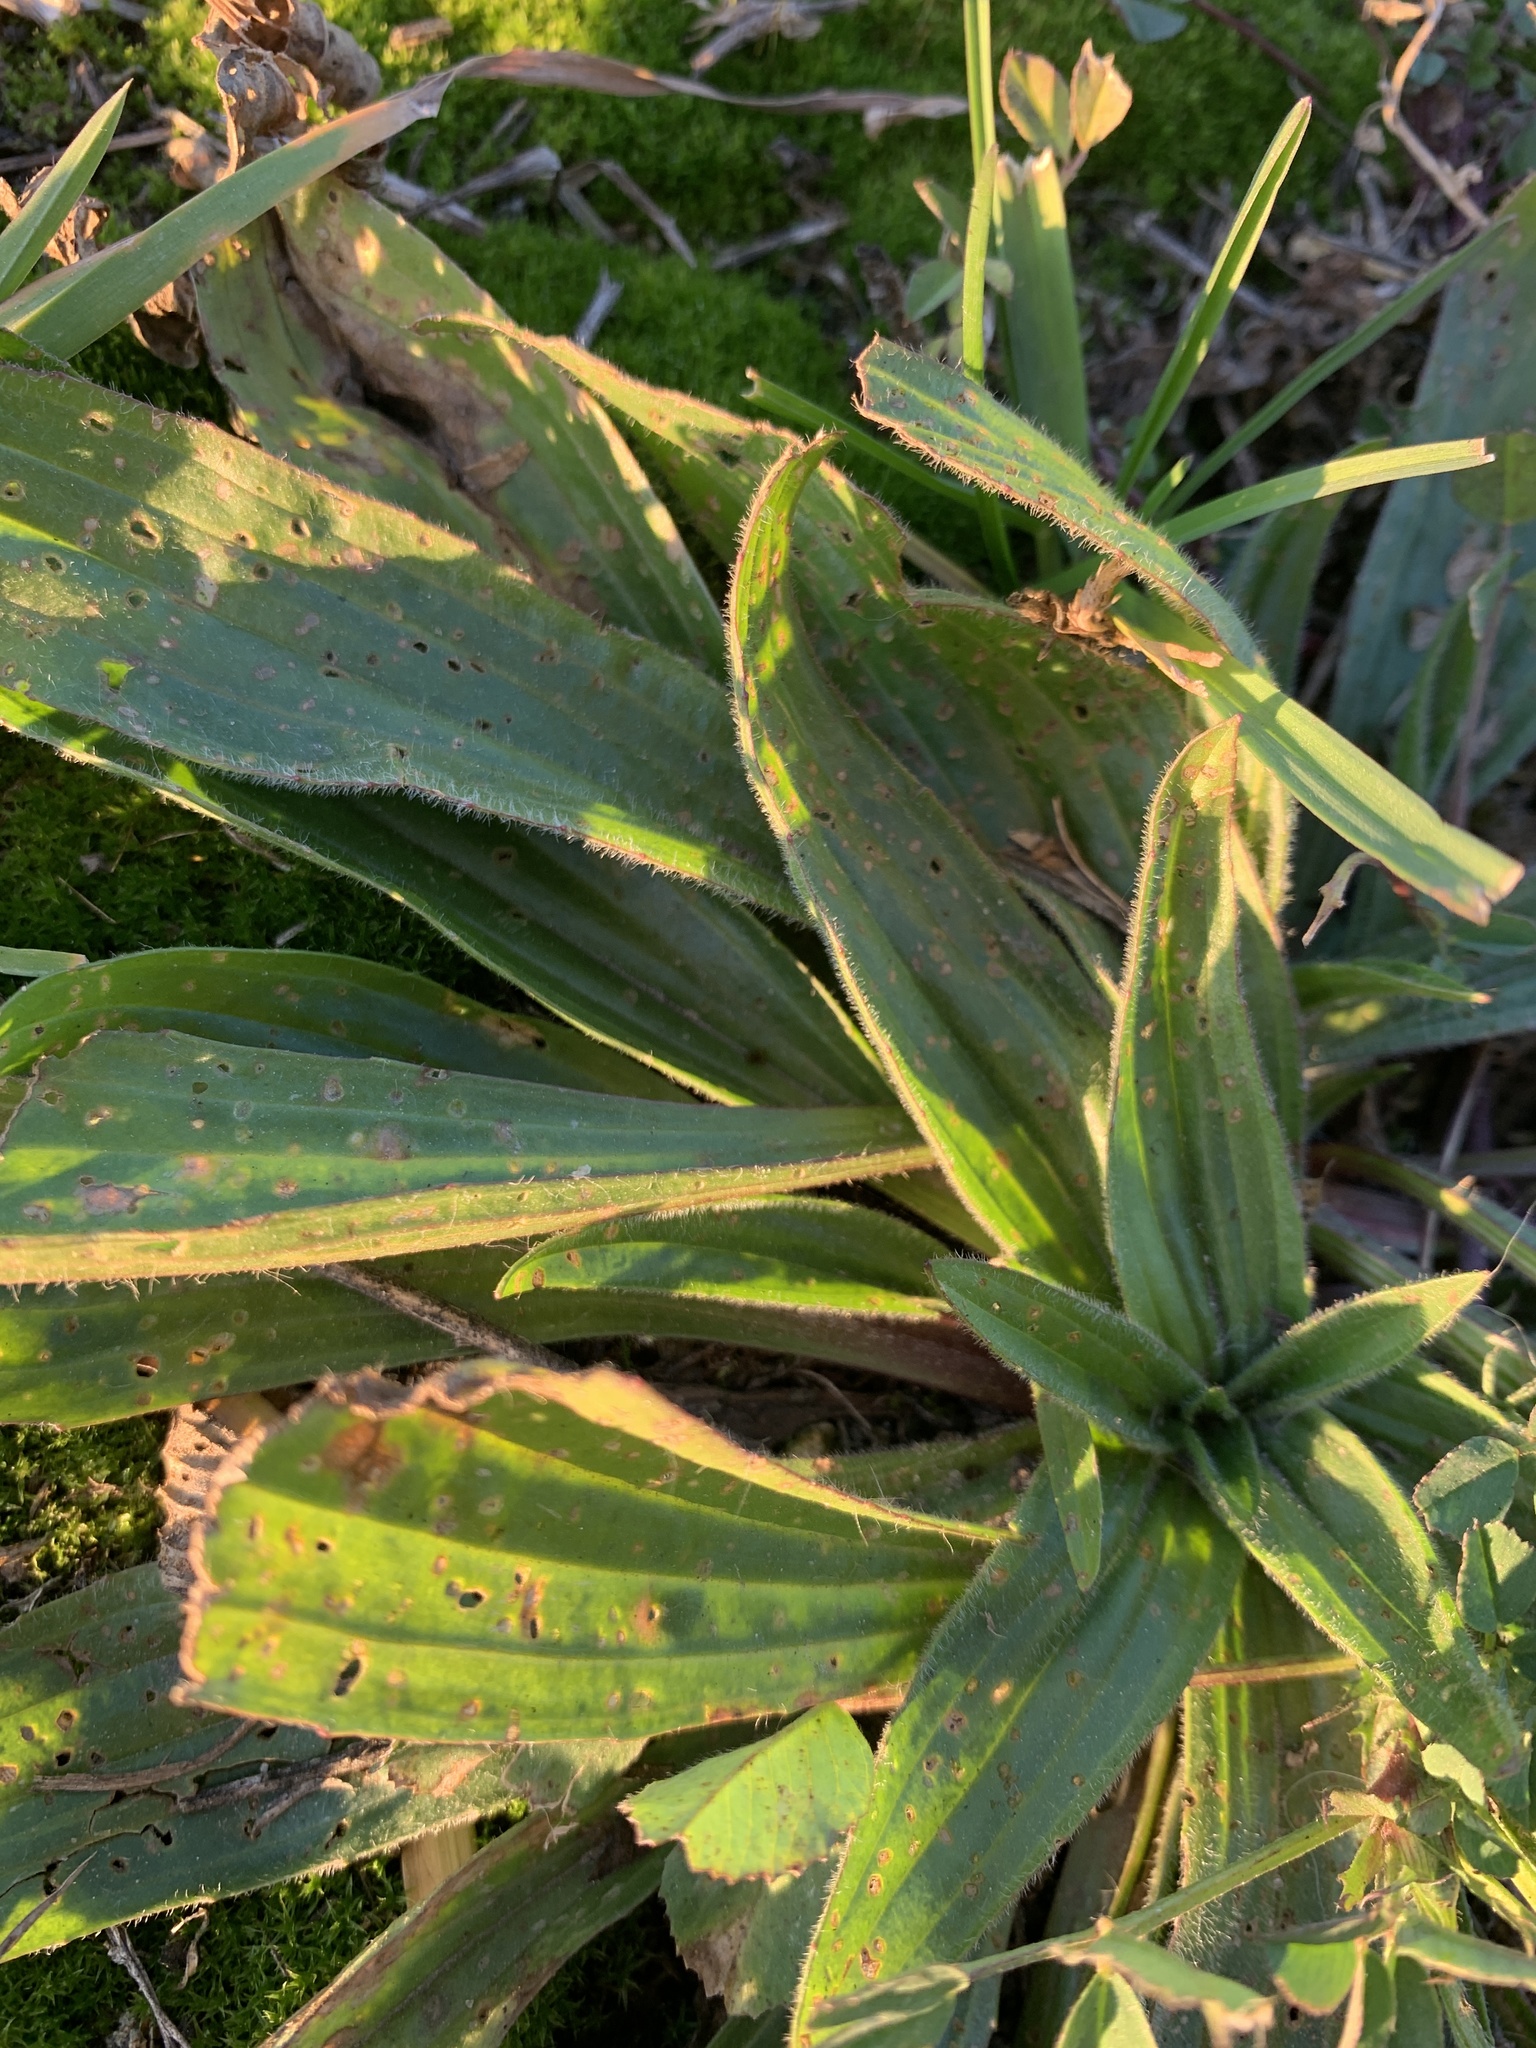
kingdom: Plantae
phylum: Tracheophyta
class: Magnoliopsida
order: Lamiales
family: Plantaginaceae
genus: Plantago
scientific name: Plantago lanceolata
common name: Ribwort plantain
